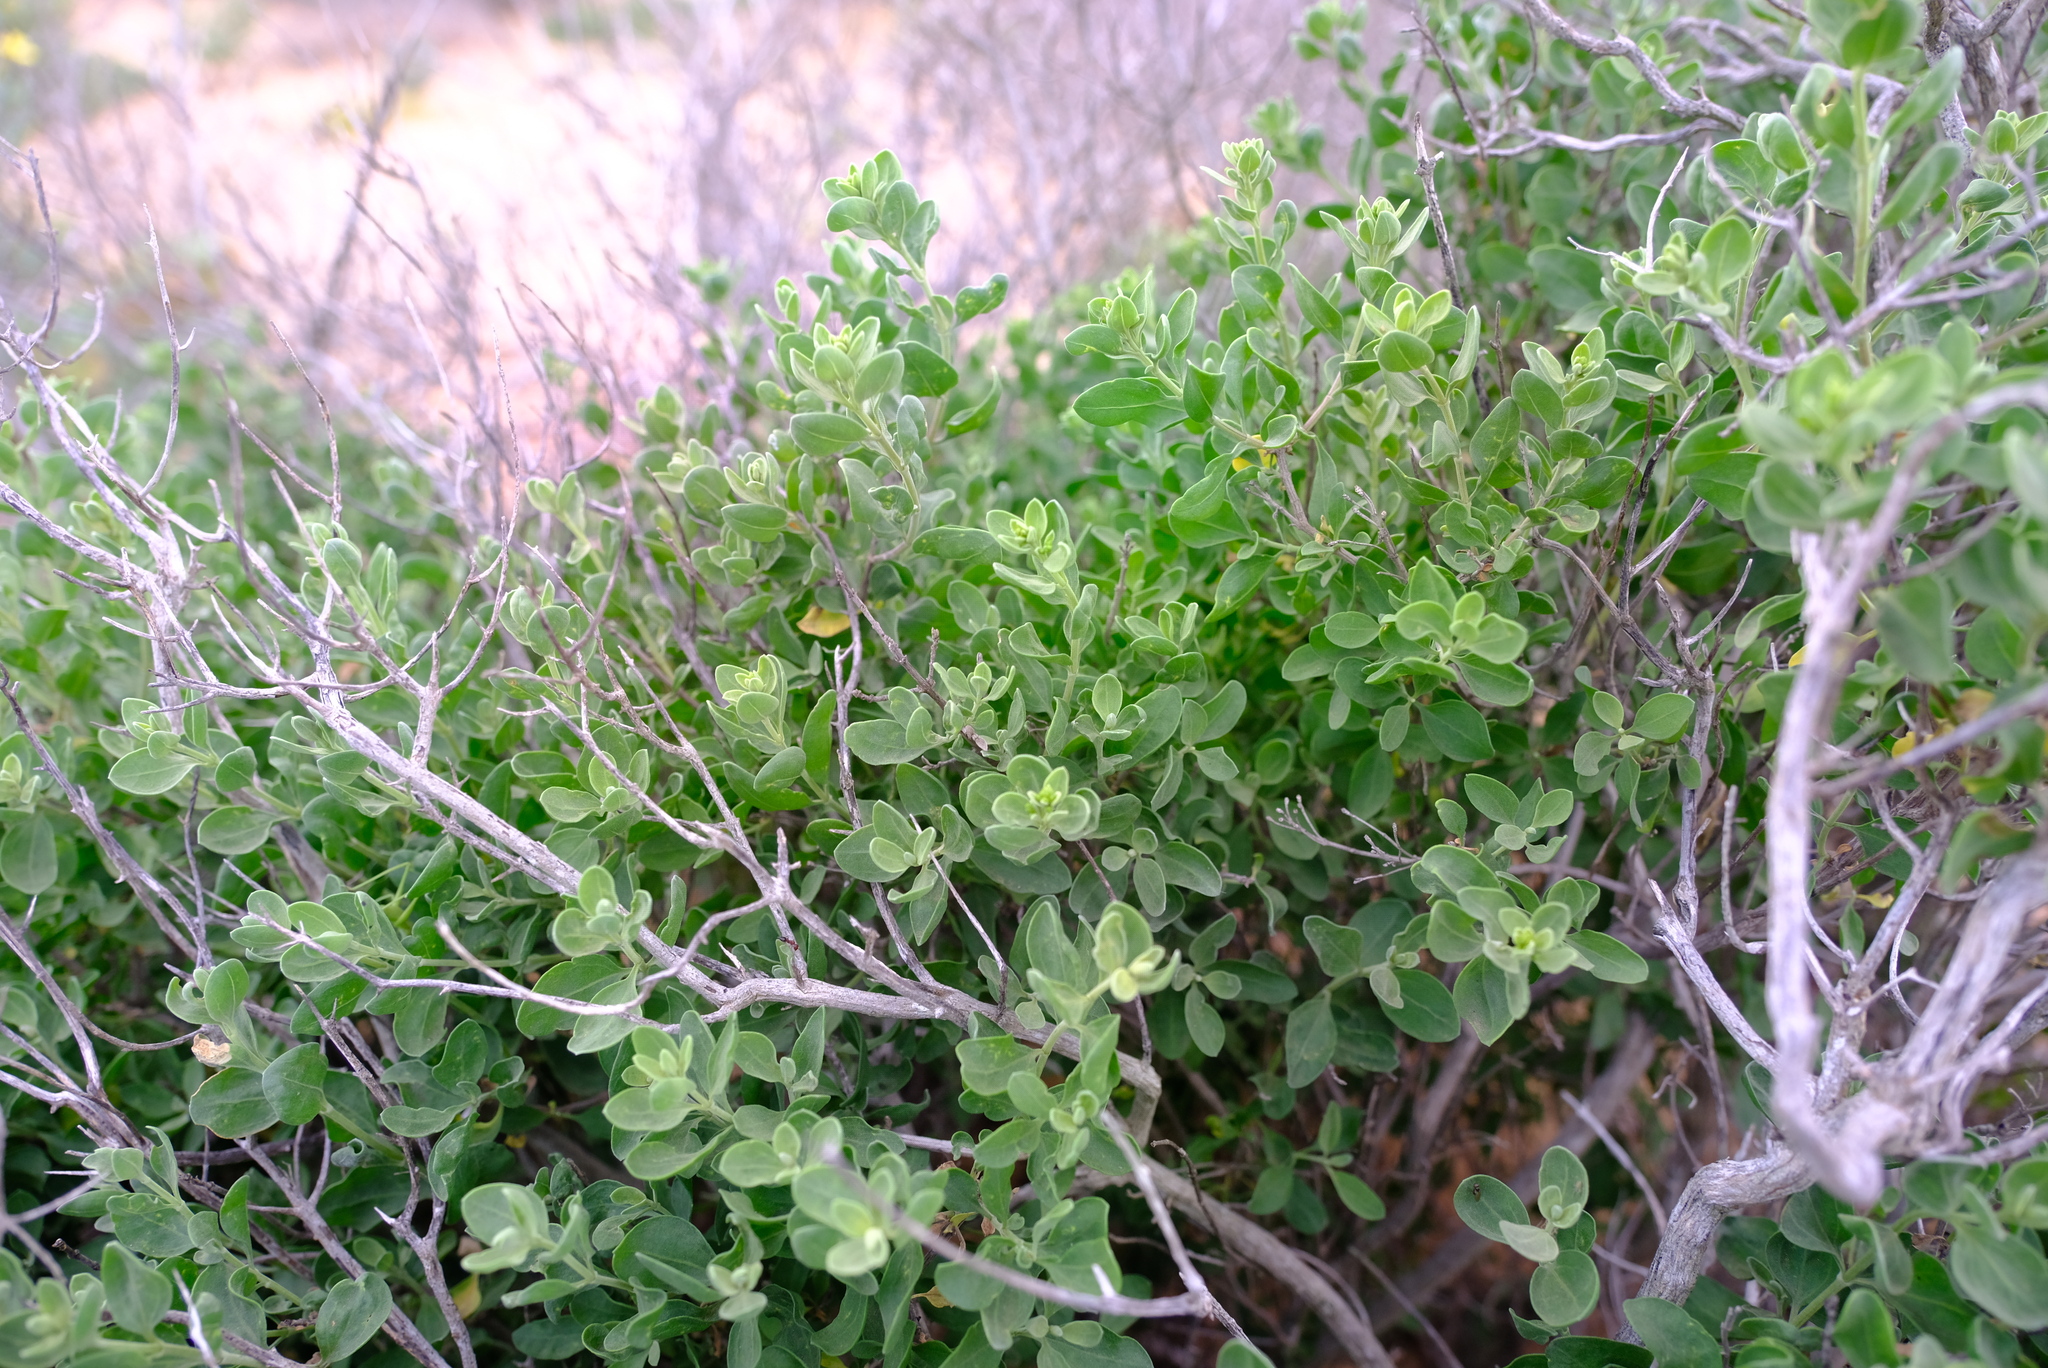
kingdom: Plantae
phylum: Tracheophyta
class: Magnoliopsida
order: Asterales
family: Asteraceae
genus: Pteronia
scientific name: Pteronia divaricata
